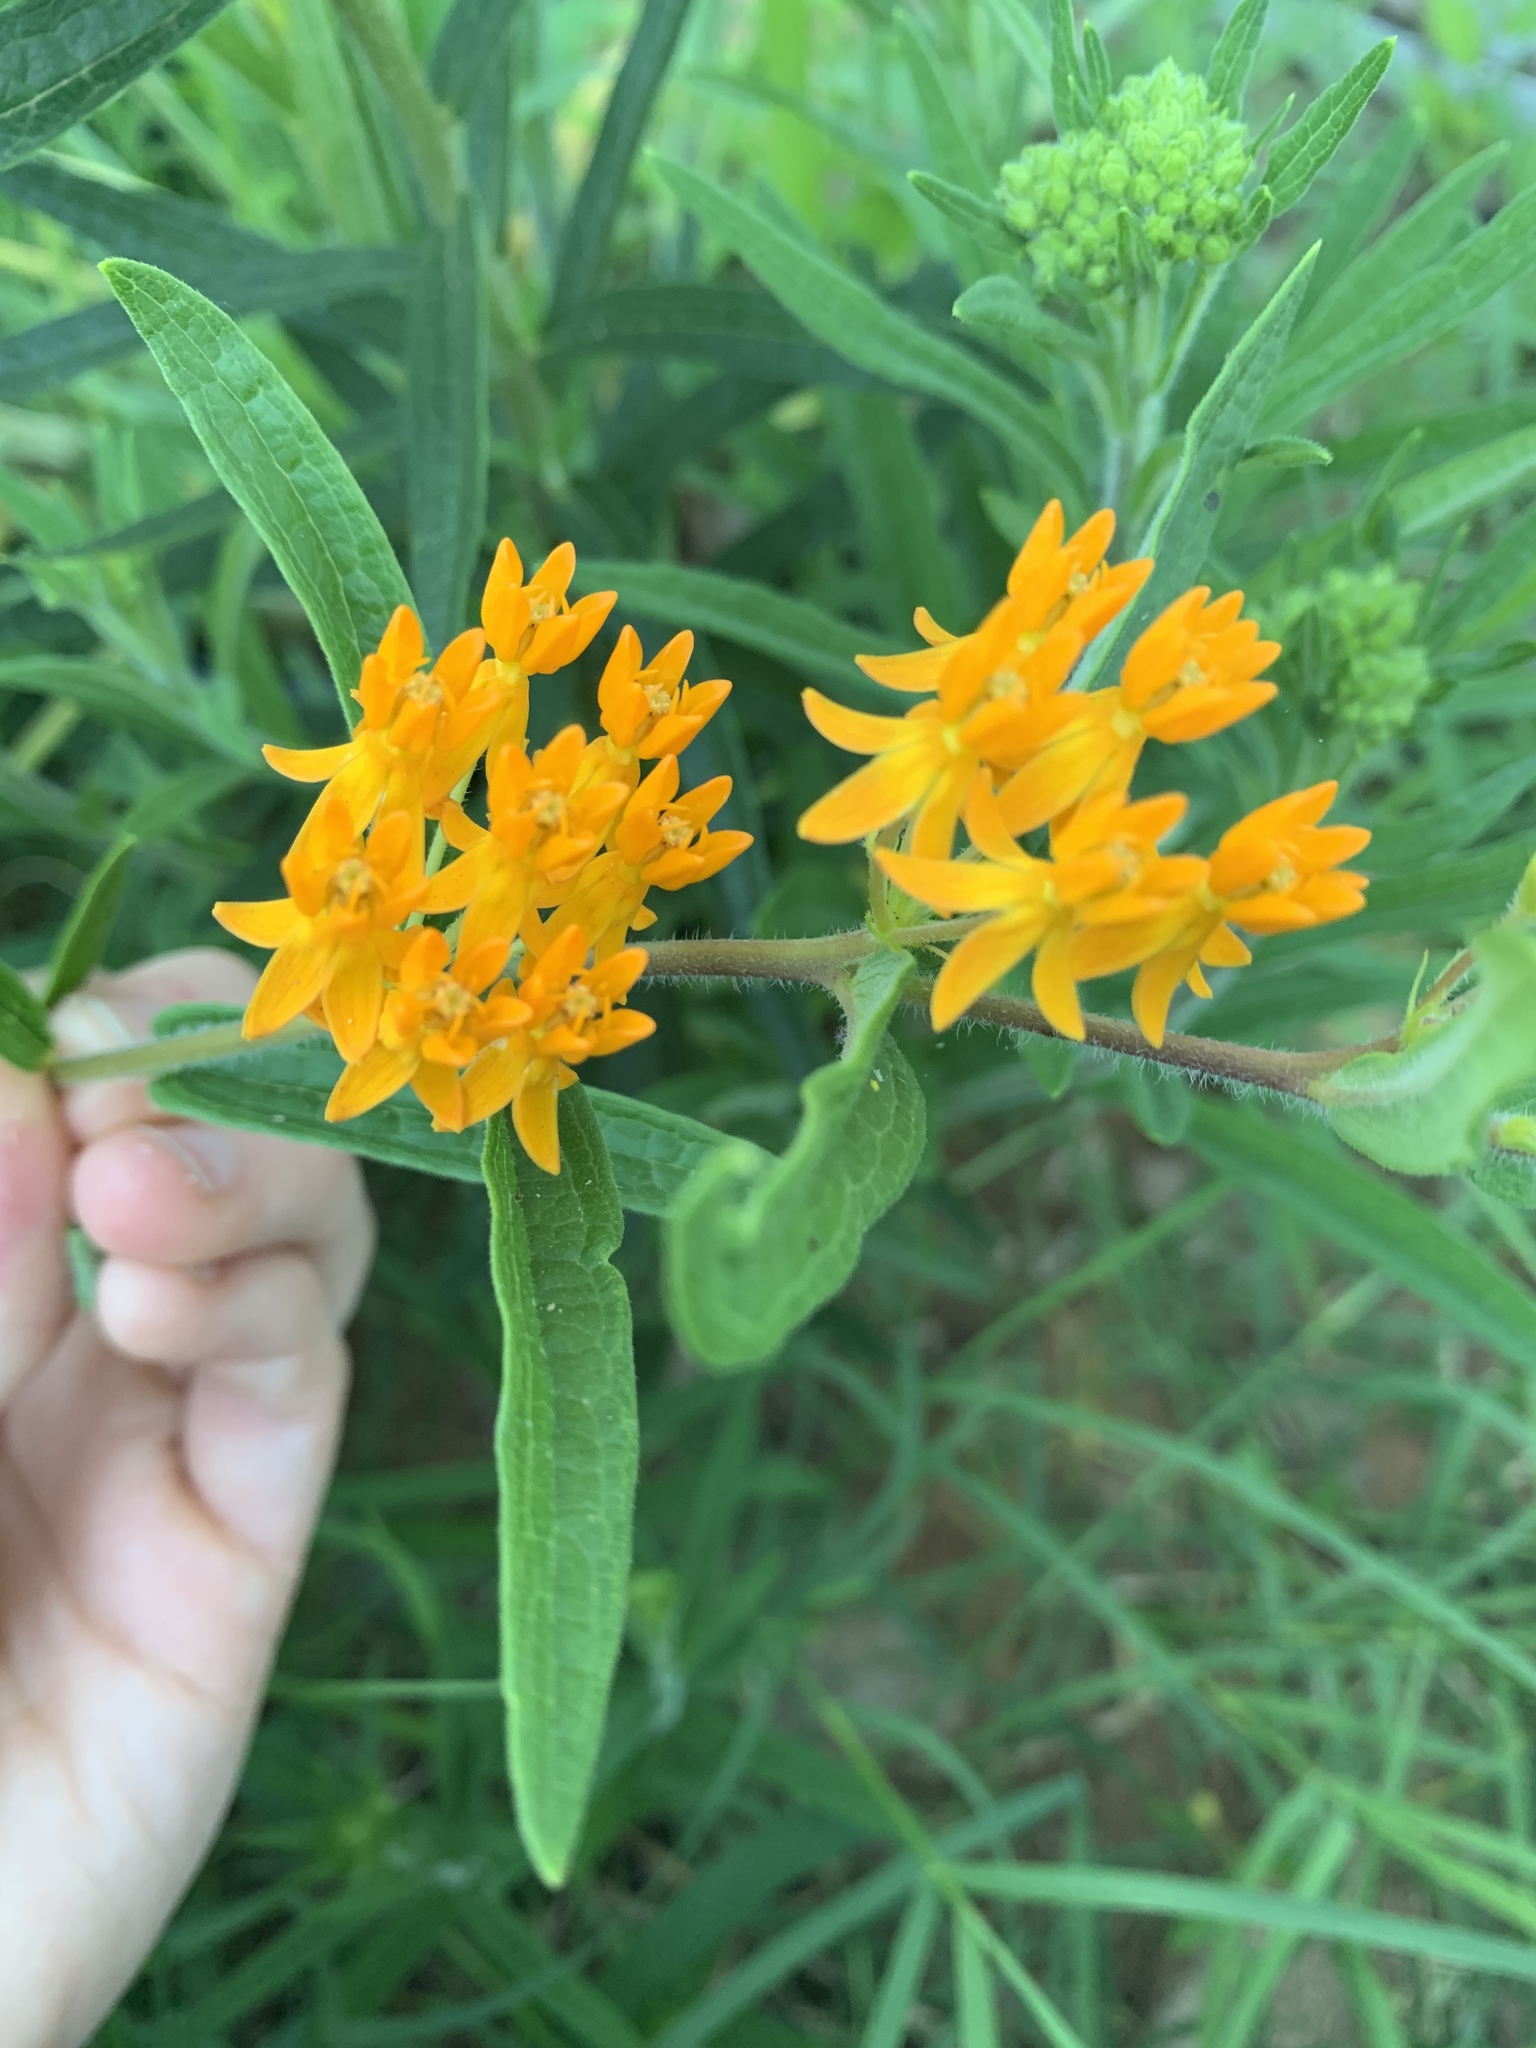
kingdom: Plantae
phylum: Tracheophyta
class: Magnoliopsida
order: Gentianales
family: Apocynaceae
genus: Asclepias
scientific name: Asclepias tuberosa
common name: Butterfly milkweed
